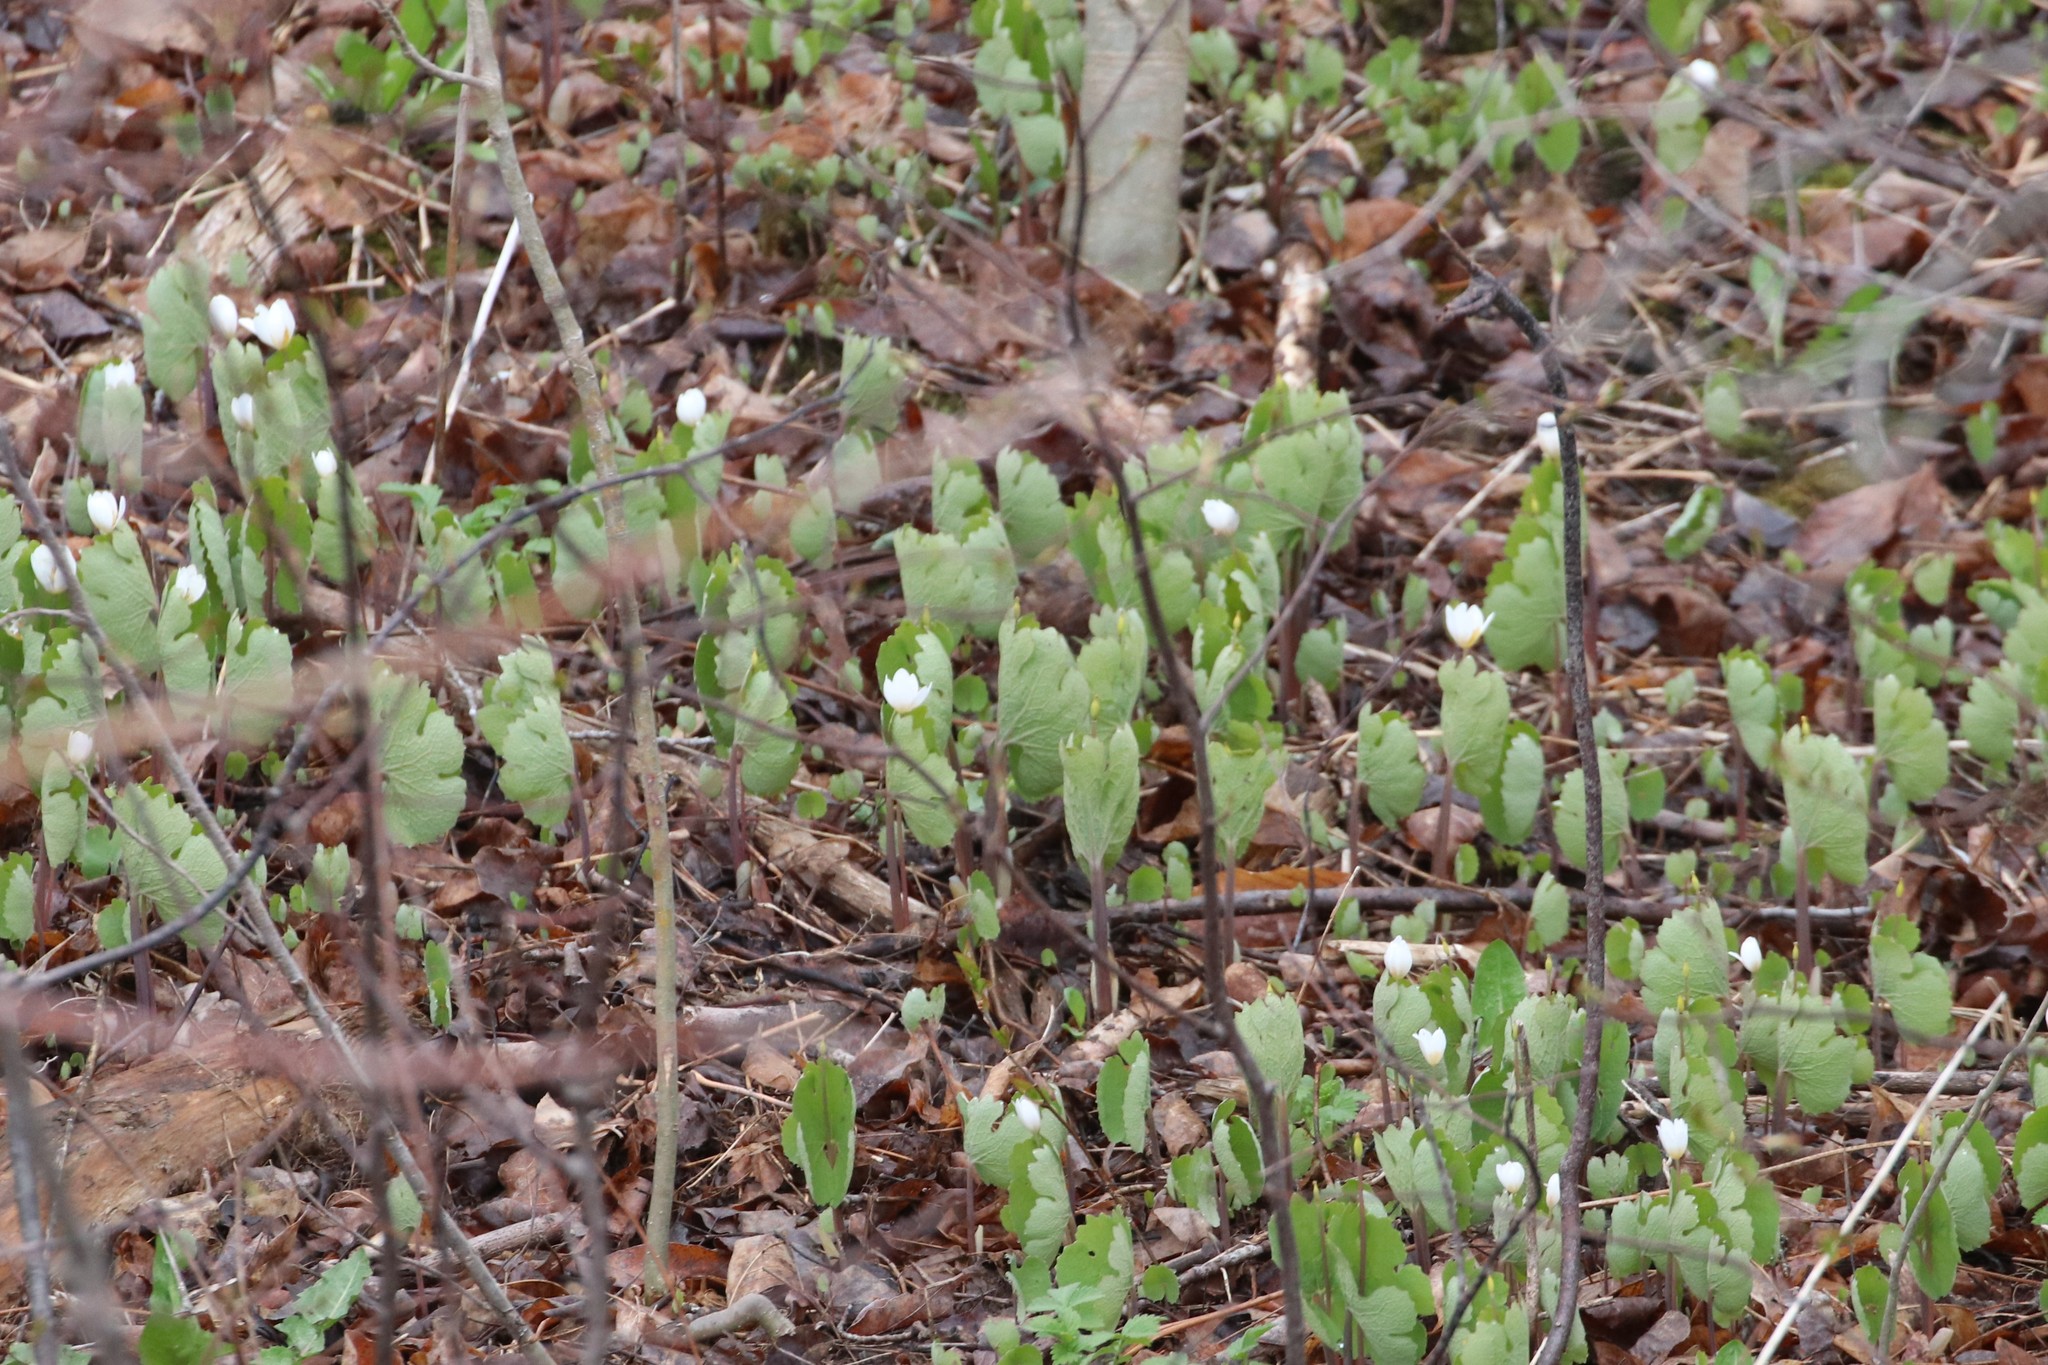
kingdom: Plantae
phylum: Tracheophyta
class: Magnoliopsida
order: Ranunculales
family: Papaveraceae
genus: Sanguinaria
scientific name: Sanguinaria canadensis
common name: Bloodroot
